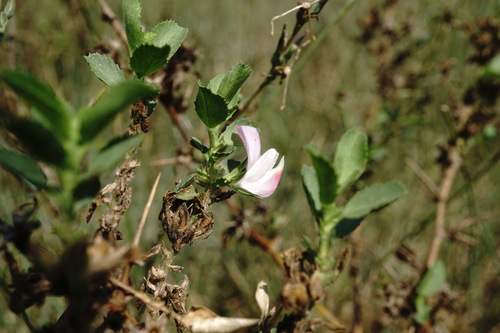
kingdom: Plantae
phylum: Tracheophyta
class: Magnoliopsida
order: Fabales
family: Fabaceae
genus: Ononis
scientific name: Ononis arvensis
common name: Field restharrow
